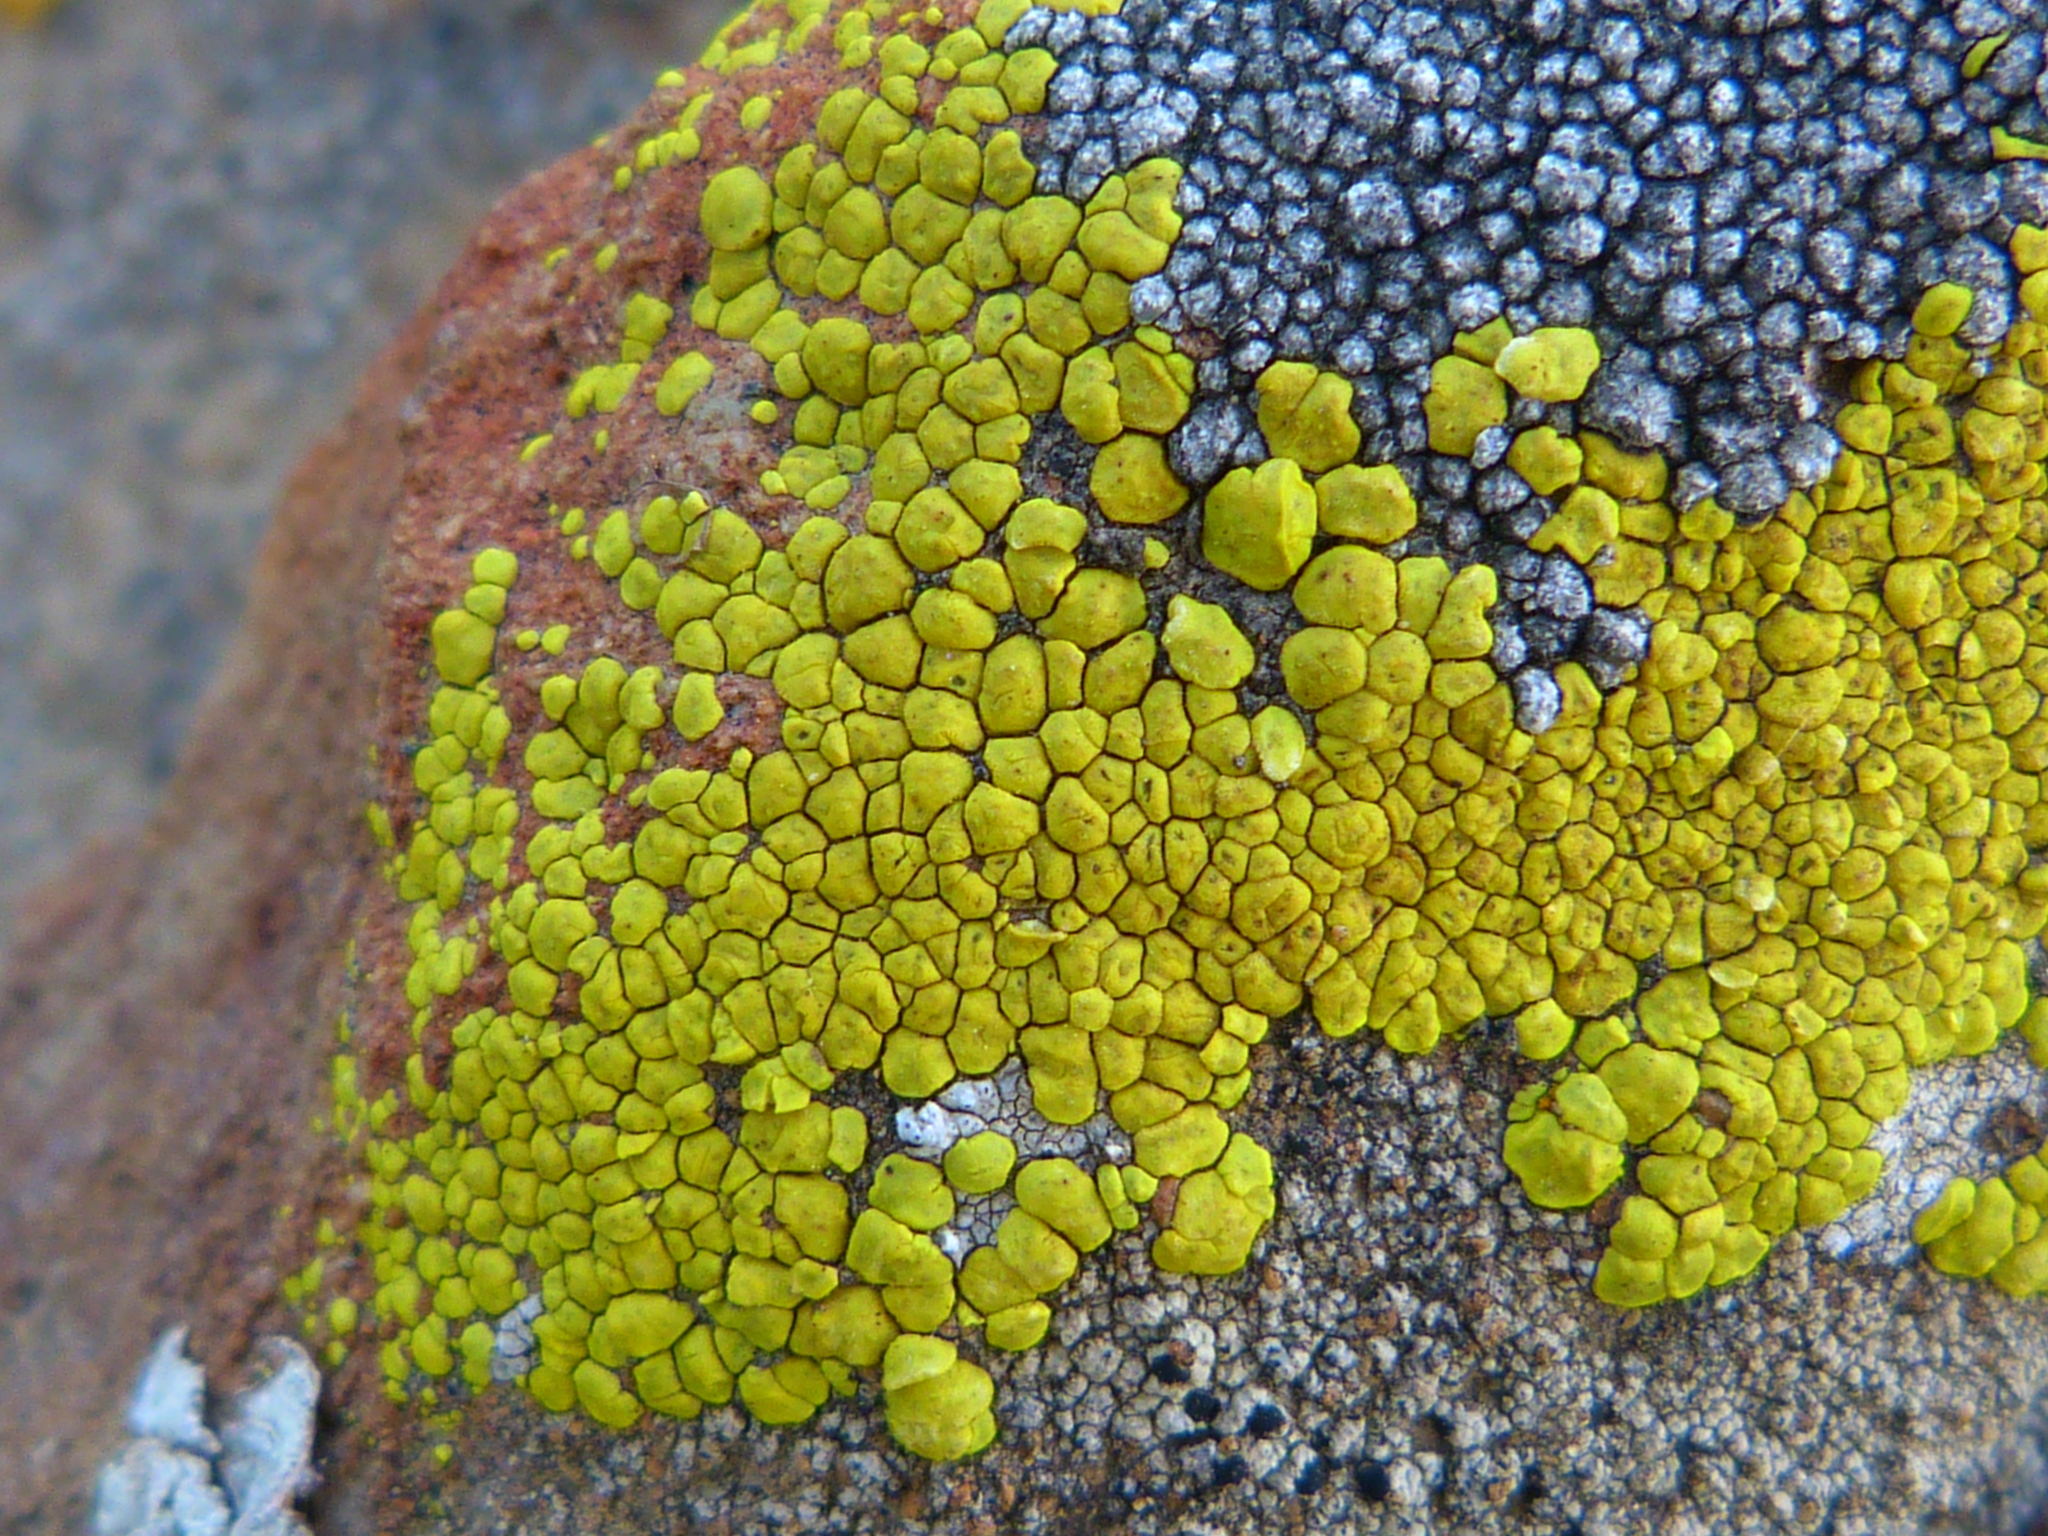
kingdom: Fungi
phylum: Ascomycota
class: Lecanoromycetes
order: Acarosporales
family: Acarosporaceae
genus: Acarospora
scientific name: Acarospora socialis
